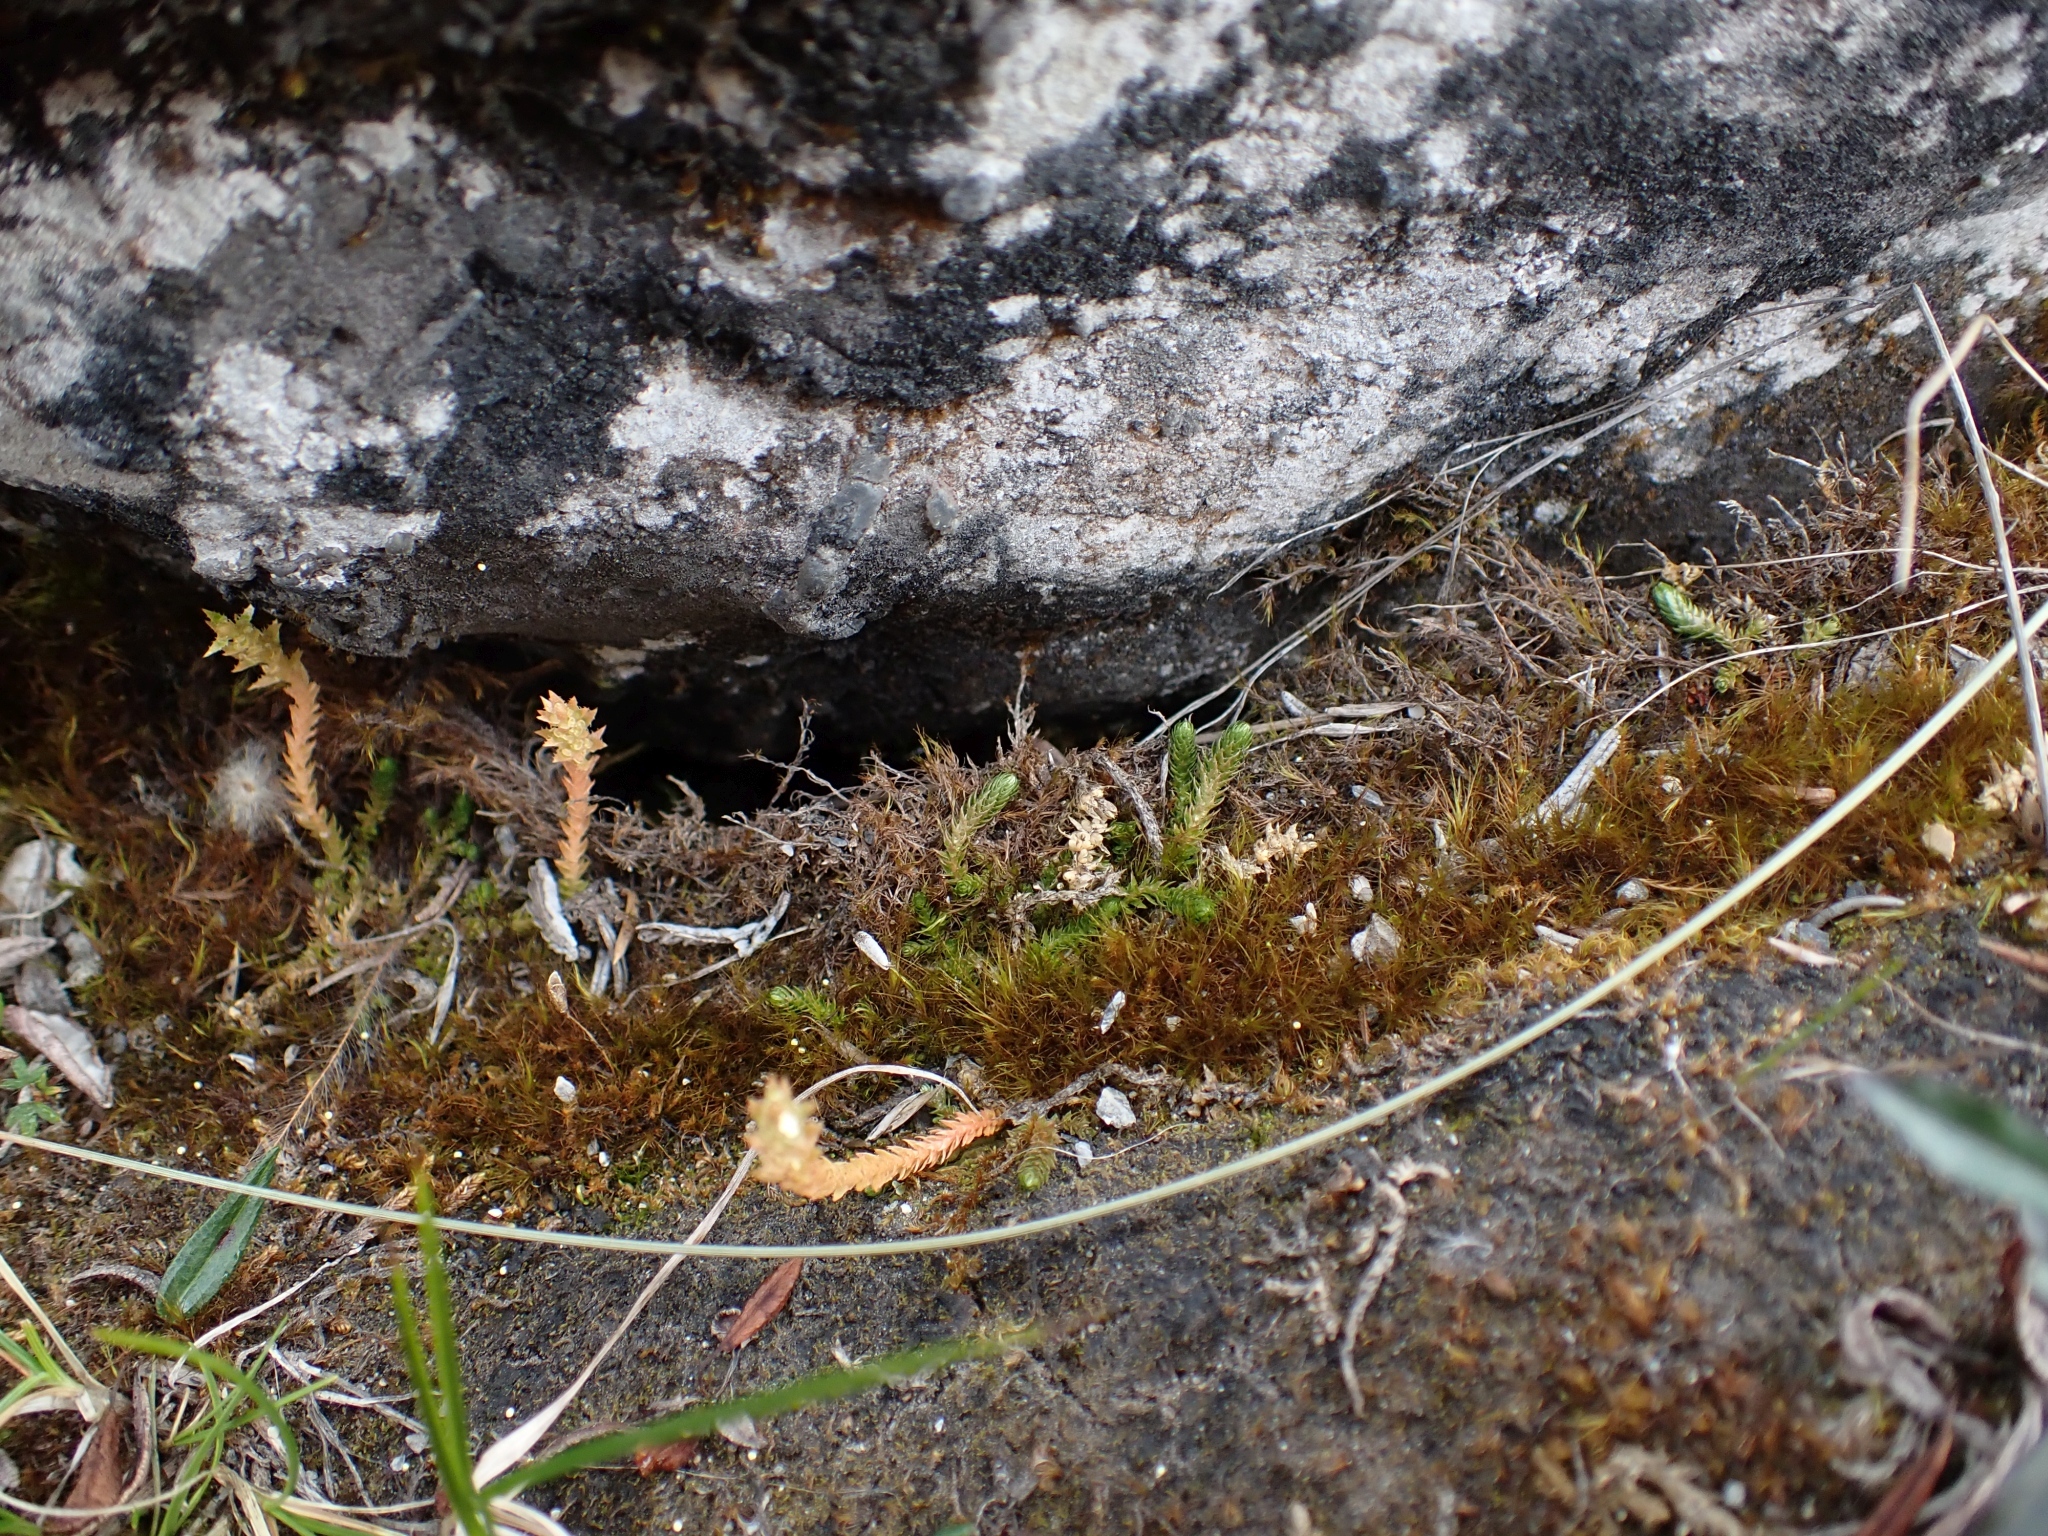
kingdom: Plantae
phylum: Tracheophyta
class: Lycopodiopsida
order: Selaginellales
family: Selaginellaceae
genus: Selaginella
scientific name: Selaginella selaginoides
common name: Prickly mountain-moss
